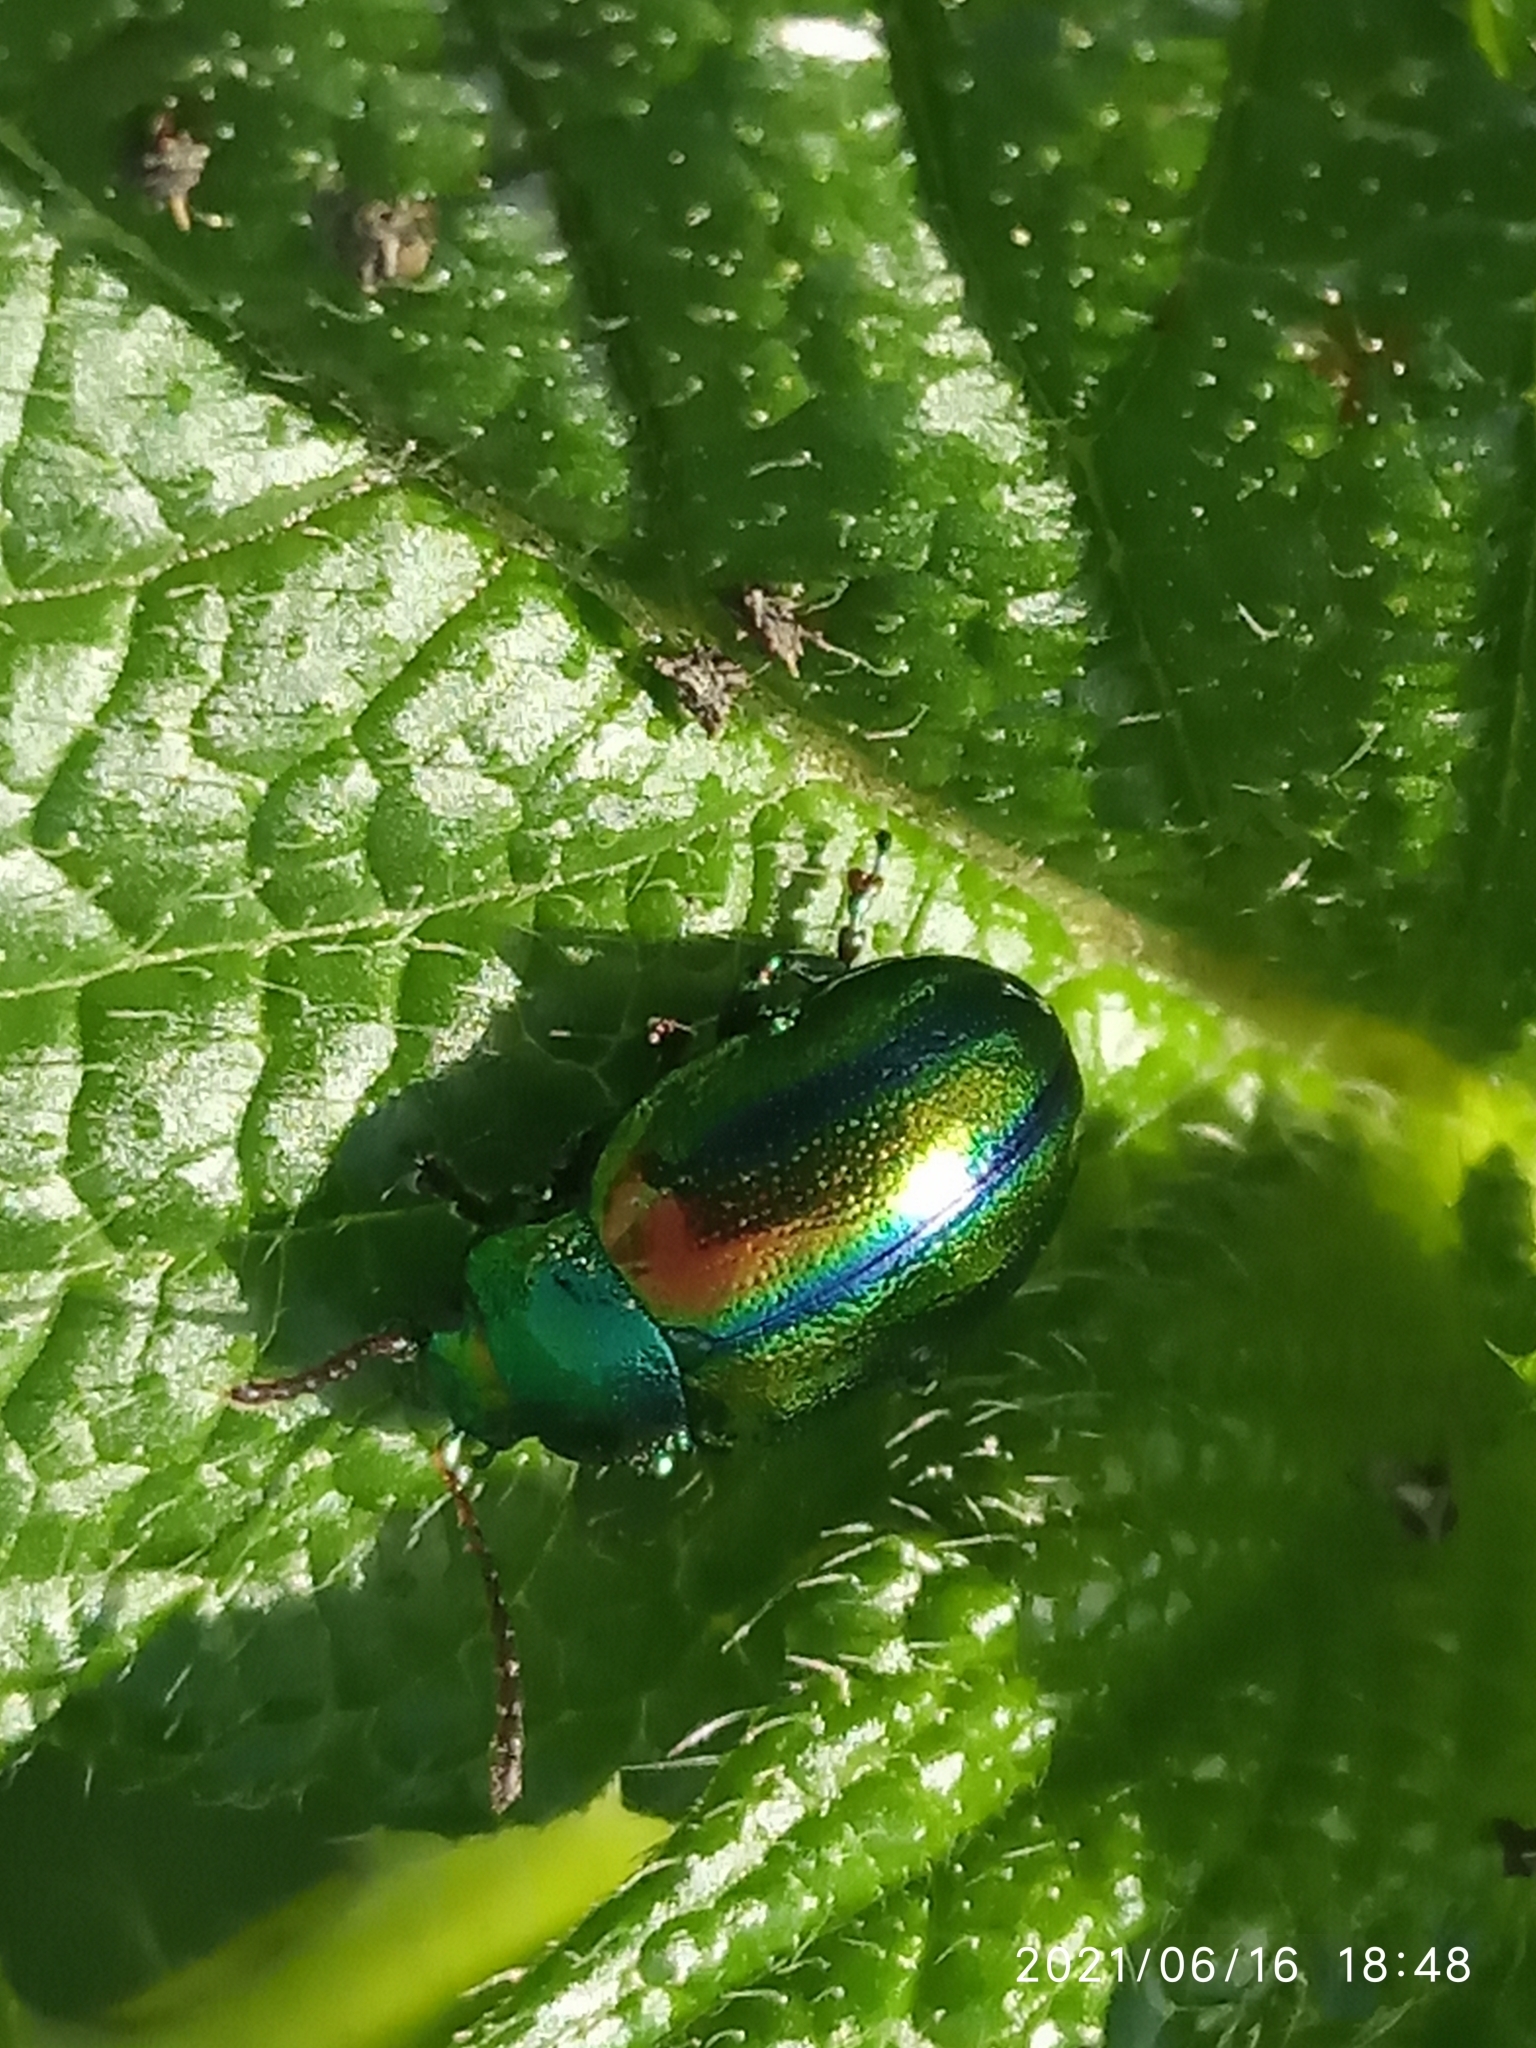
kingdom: Animalia
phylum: Arthropoda
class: Insecta
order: Coleoptera
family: Chrysomelidae
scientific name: Chrysomelidae
